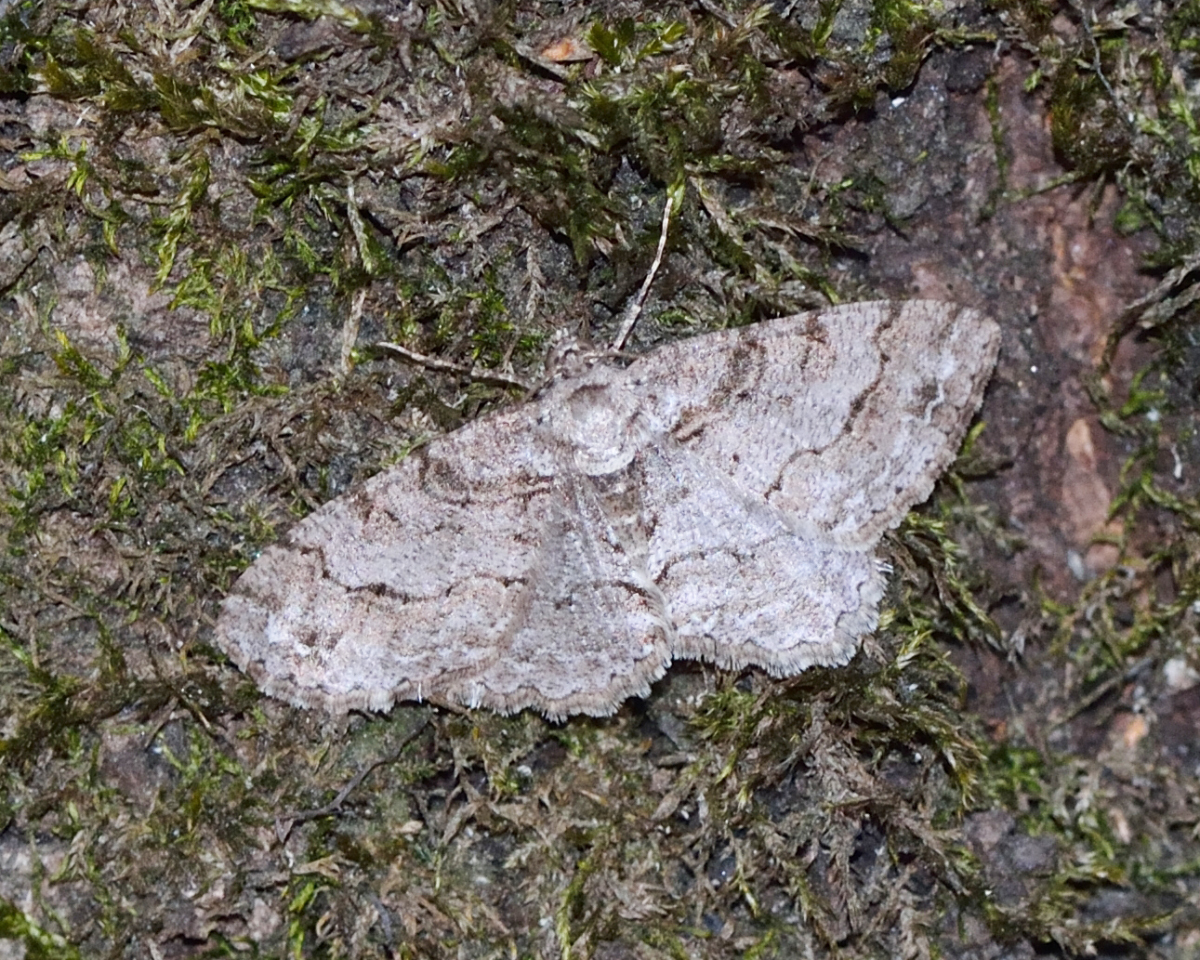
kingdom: Animalia
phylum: Arthropoda
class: Insecta
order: Lepidoptera
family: Geometridae
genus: Paradarisa
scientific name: Paradarisa consonaria
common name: Square spot
